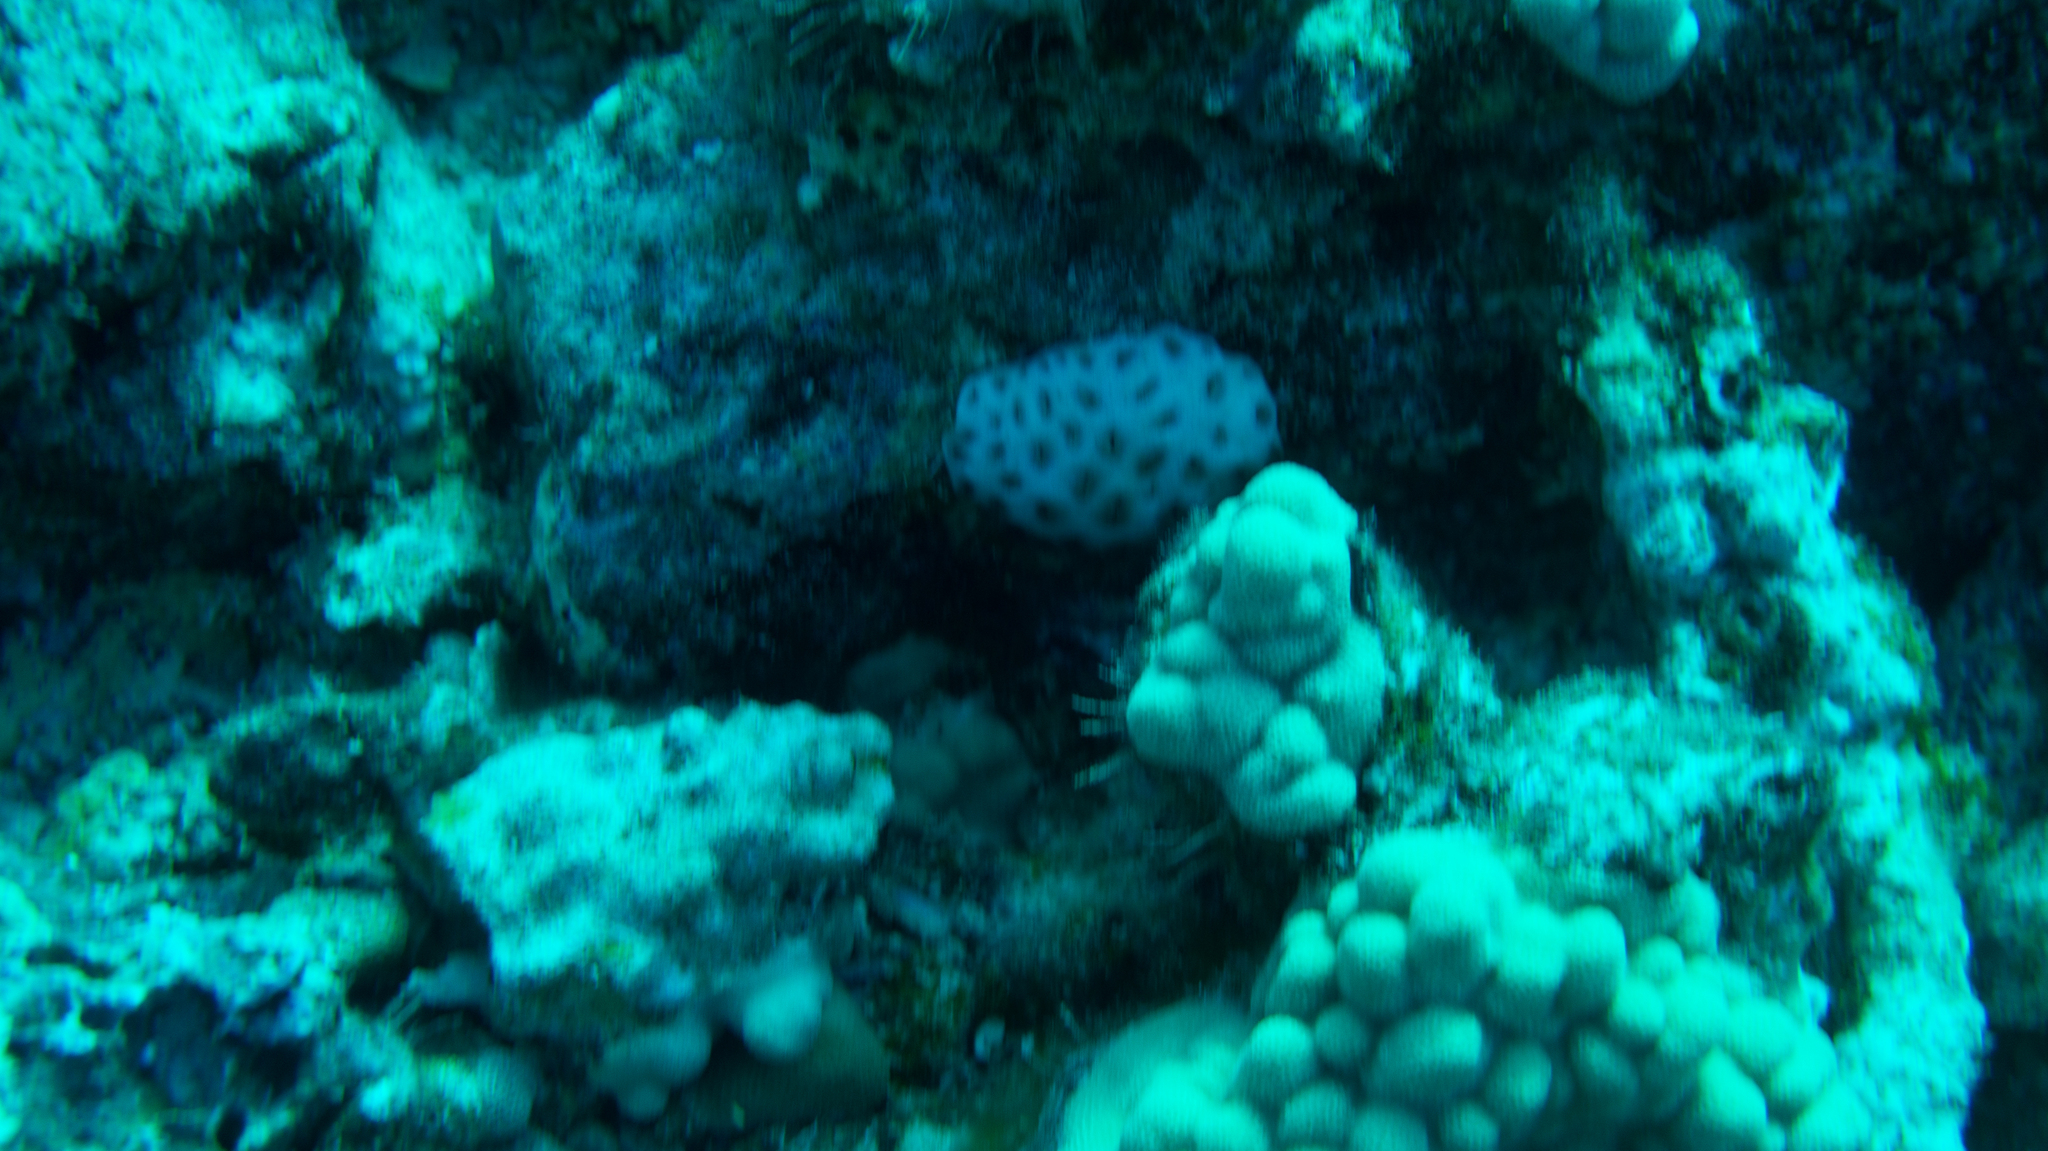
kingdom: Animalia
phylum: Cnidaria
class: Anthozoa
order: Zoantharia
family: Sphenopidae
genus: Palythoa
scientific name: Palythoa tuberculosa
